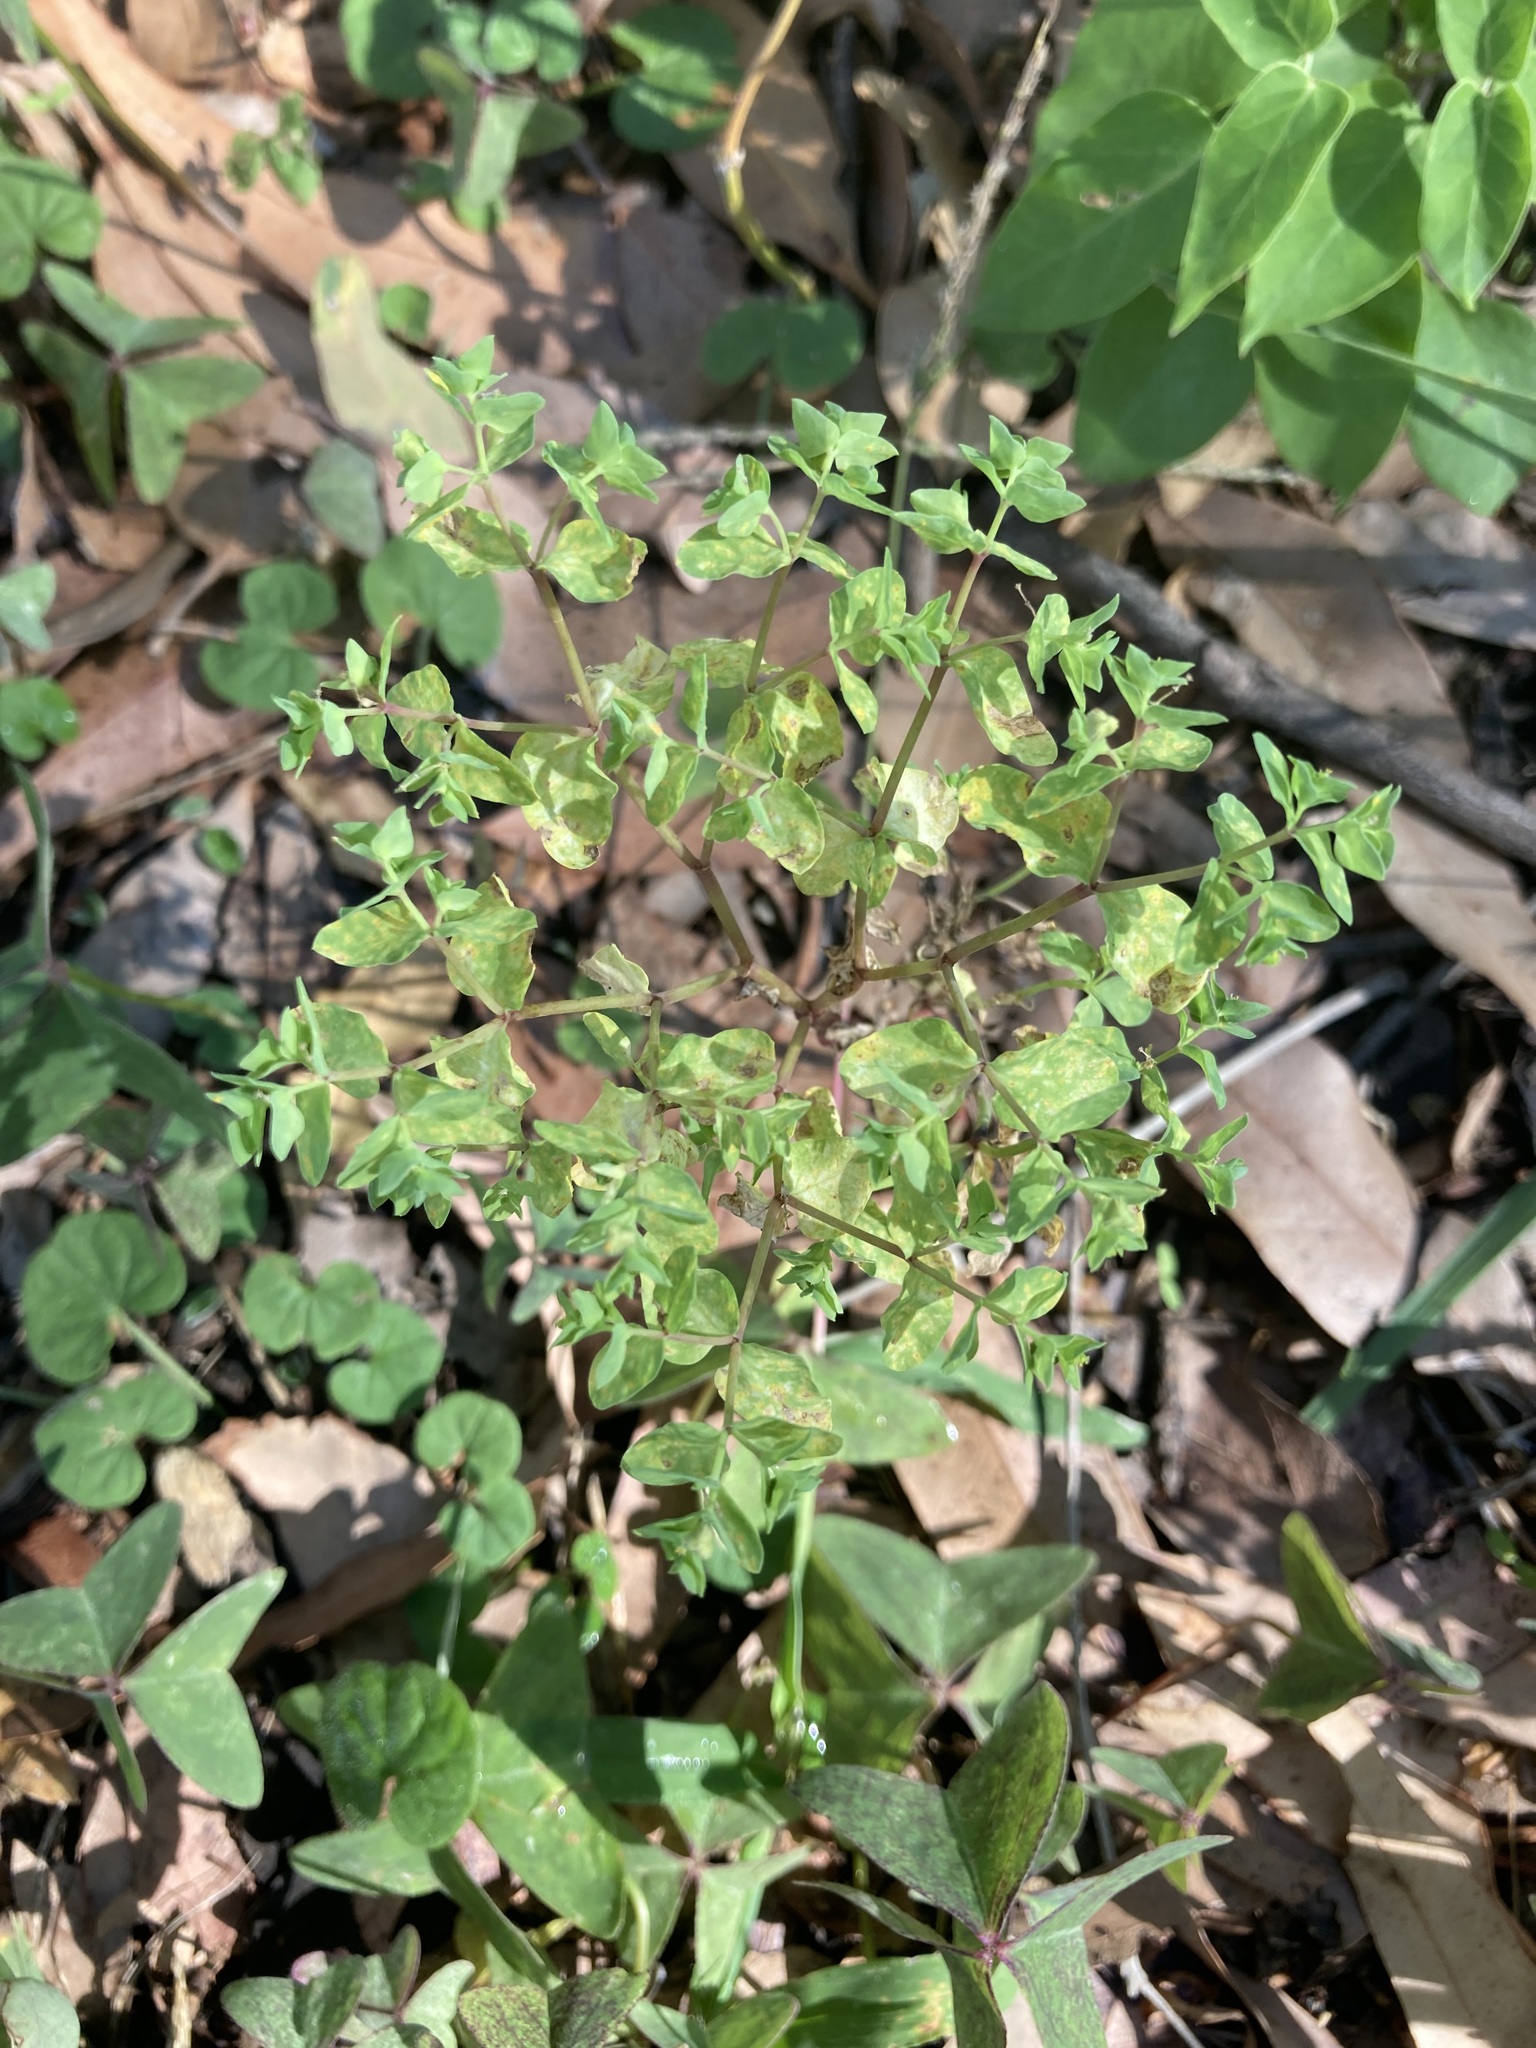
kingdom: Plantae
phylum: Tracheophyta
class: Magnoliopsida
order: Malpighiales
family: Euphorbiaceae
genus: Euphorbia
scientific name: Euphorbia peplus
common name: Petty spurge
